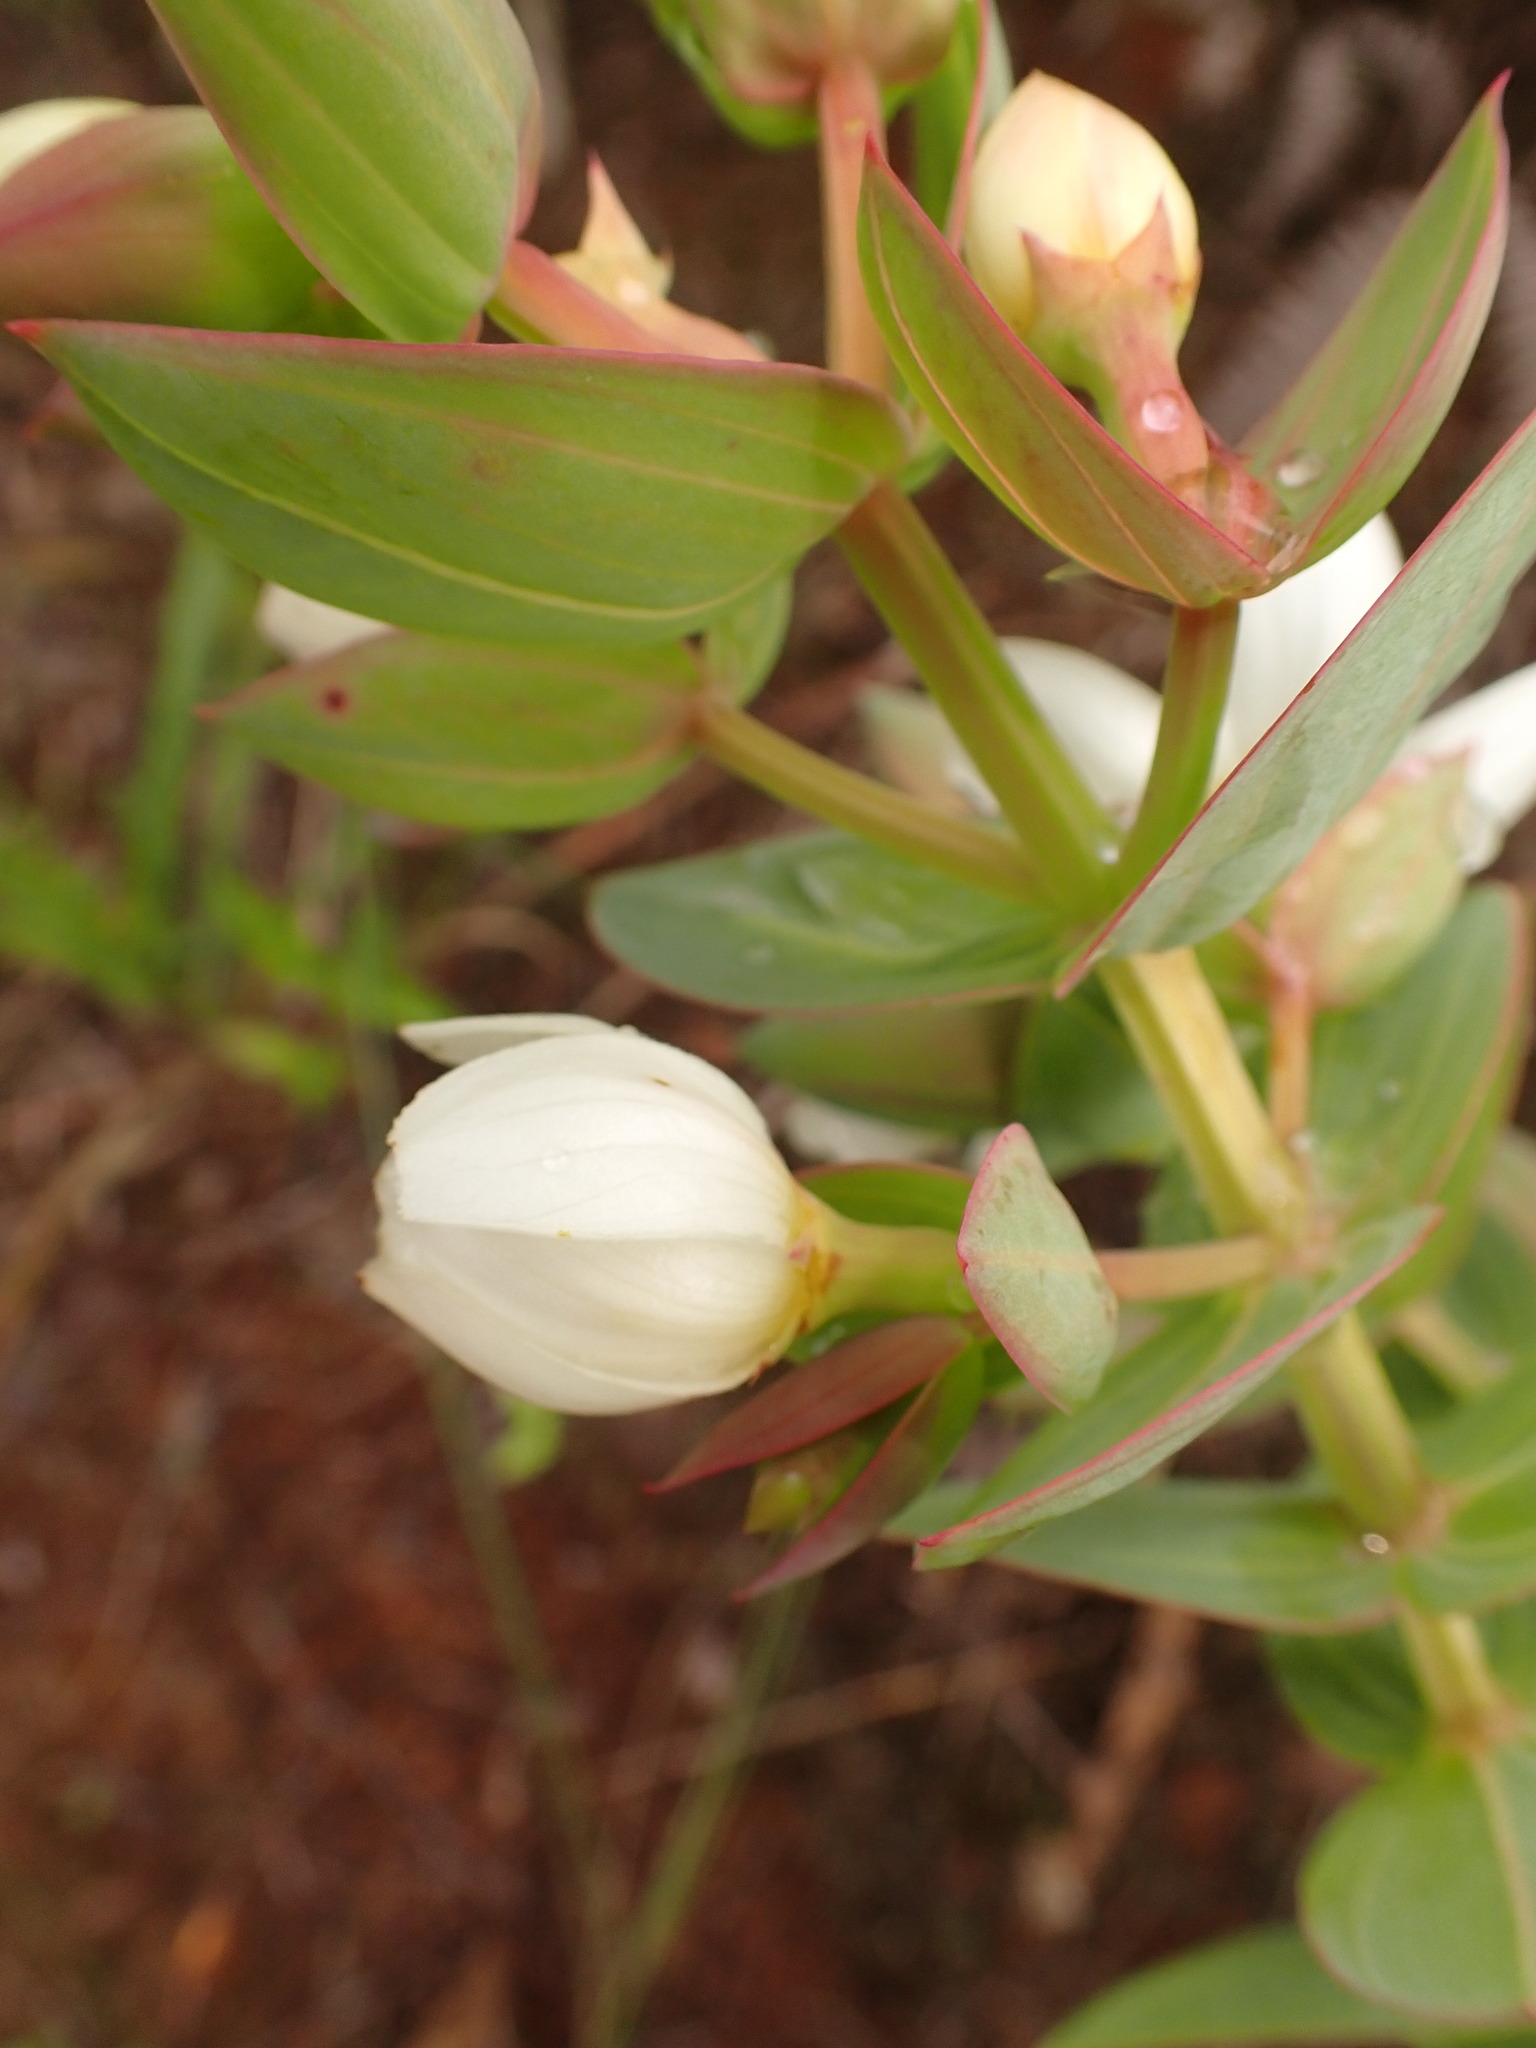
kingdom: Plantae
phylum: Tracheophyta
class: Magnoliopsida
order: Myrtales
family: Melastomataceae
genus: Microlicia
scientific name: Microlicia alba
